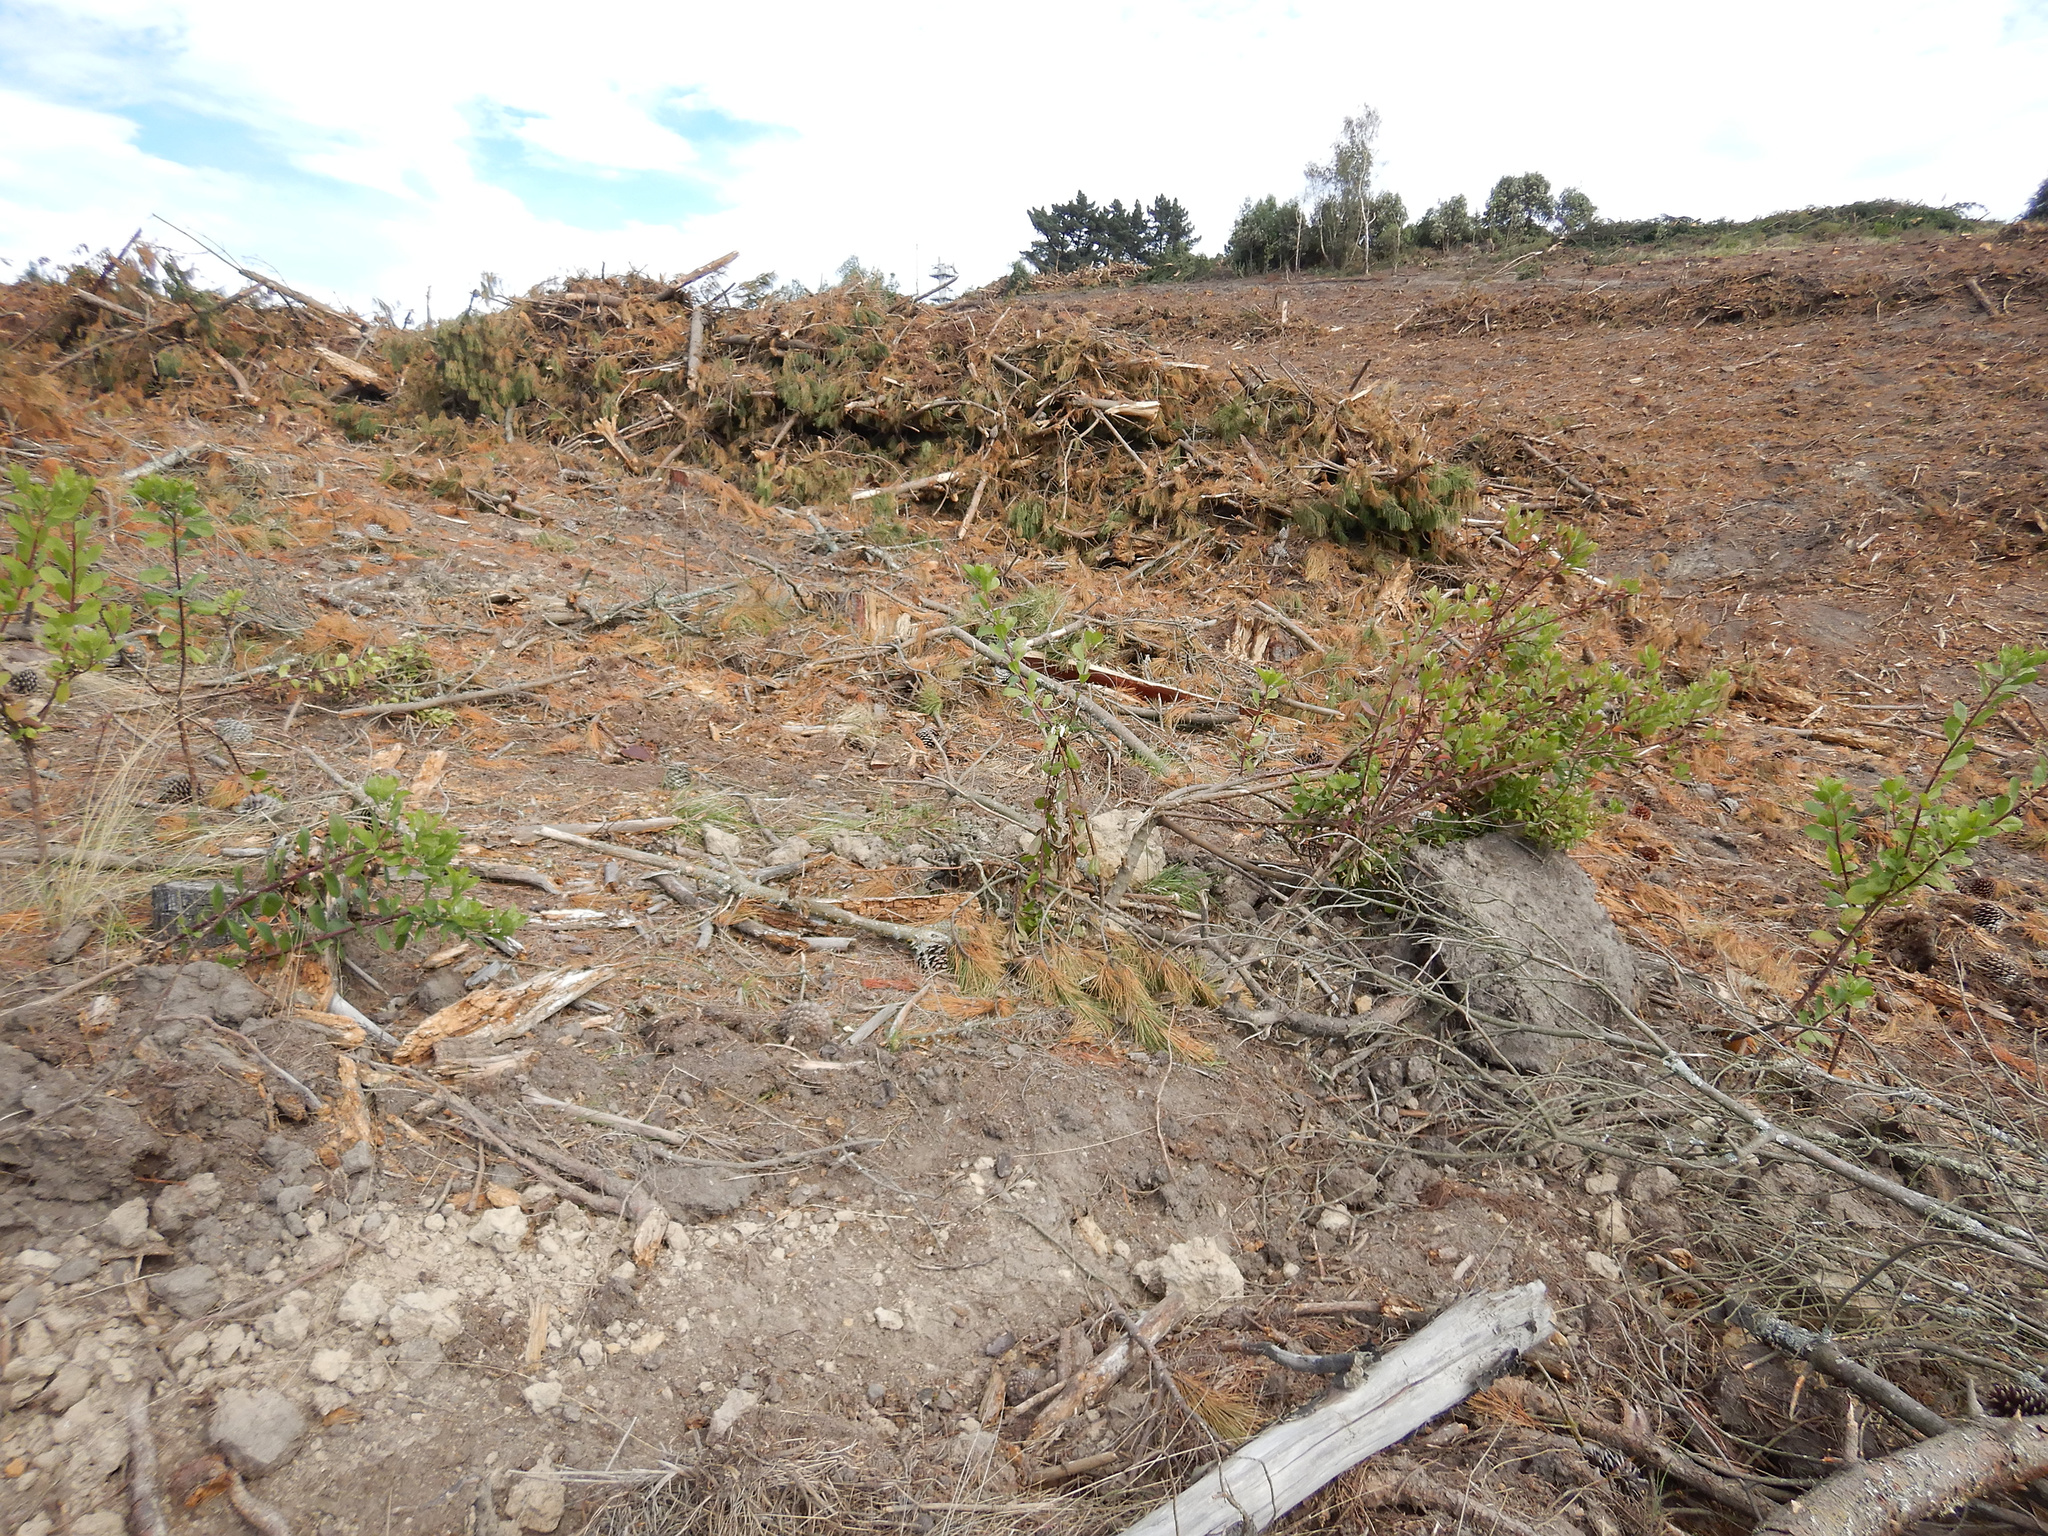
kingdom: Plantae
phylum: Tracheophyta
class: Magnoliopsida
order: Asterales
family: Asteraceae
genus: Osteospermum
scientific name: Osteospermum moniliferum
